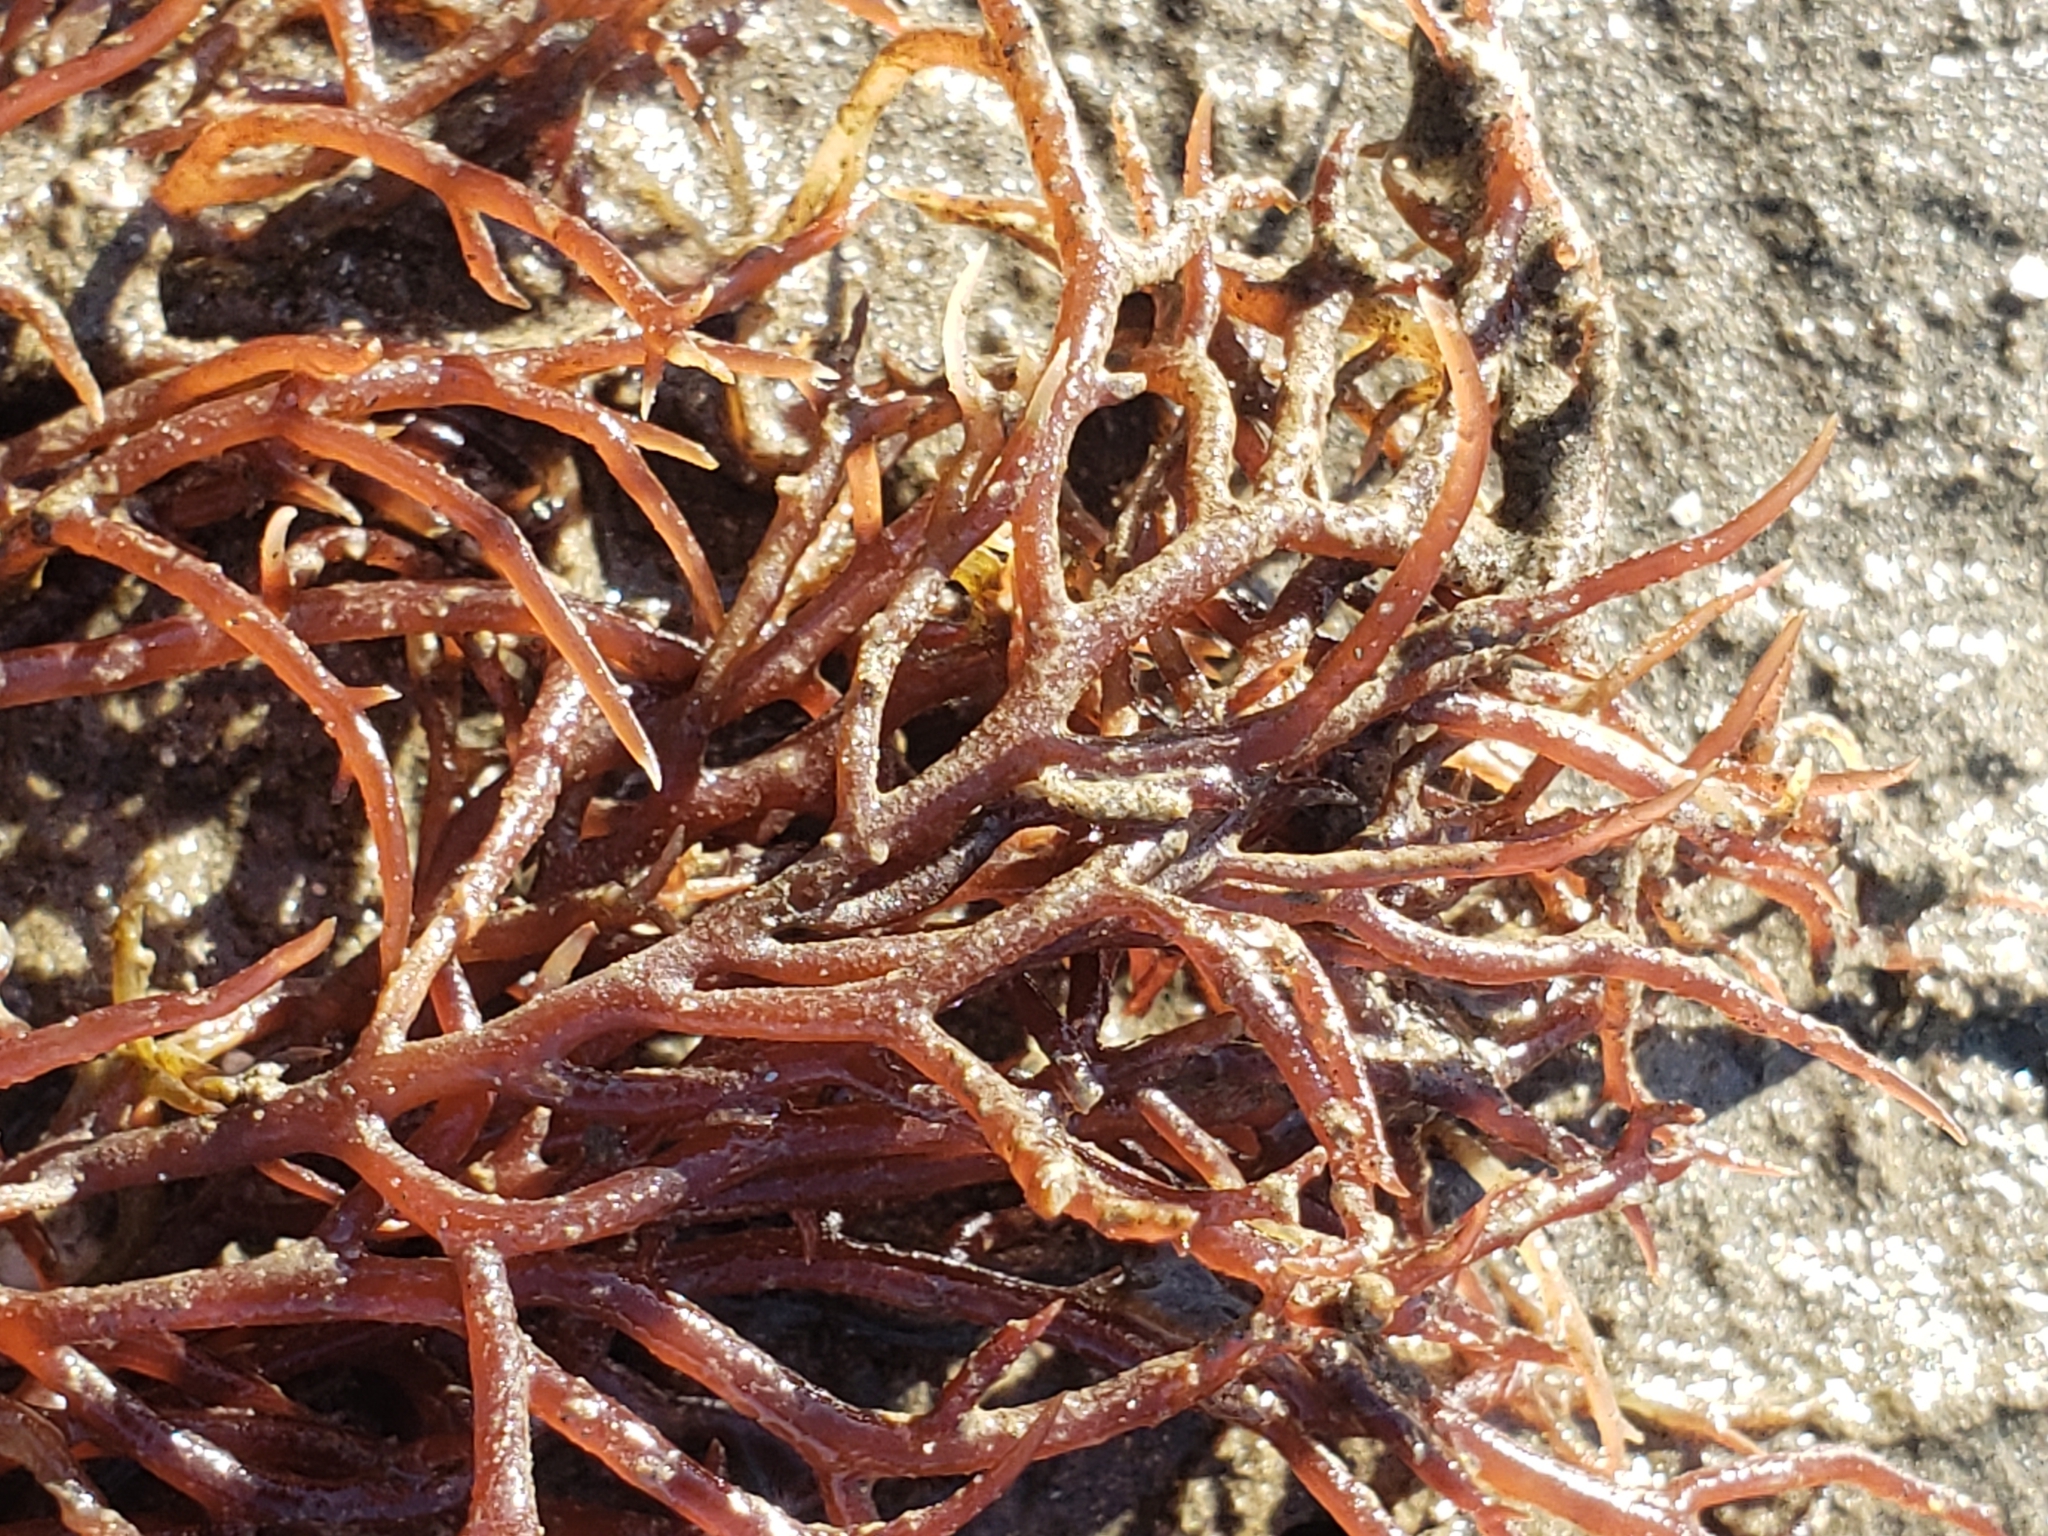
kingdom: Plantae
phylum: Rhodophyta
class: Florideophyceae
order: Gigartinales
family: Solieriaceae
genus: Sarcodiotheca
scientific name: Sarcodiotheca gaudichaudii
